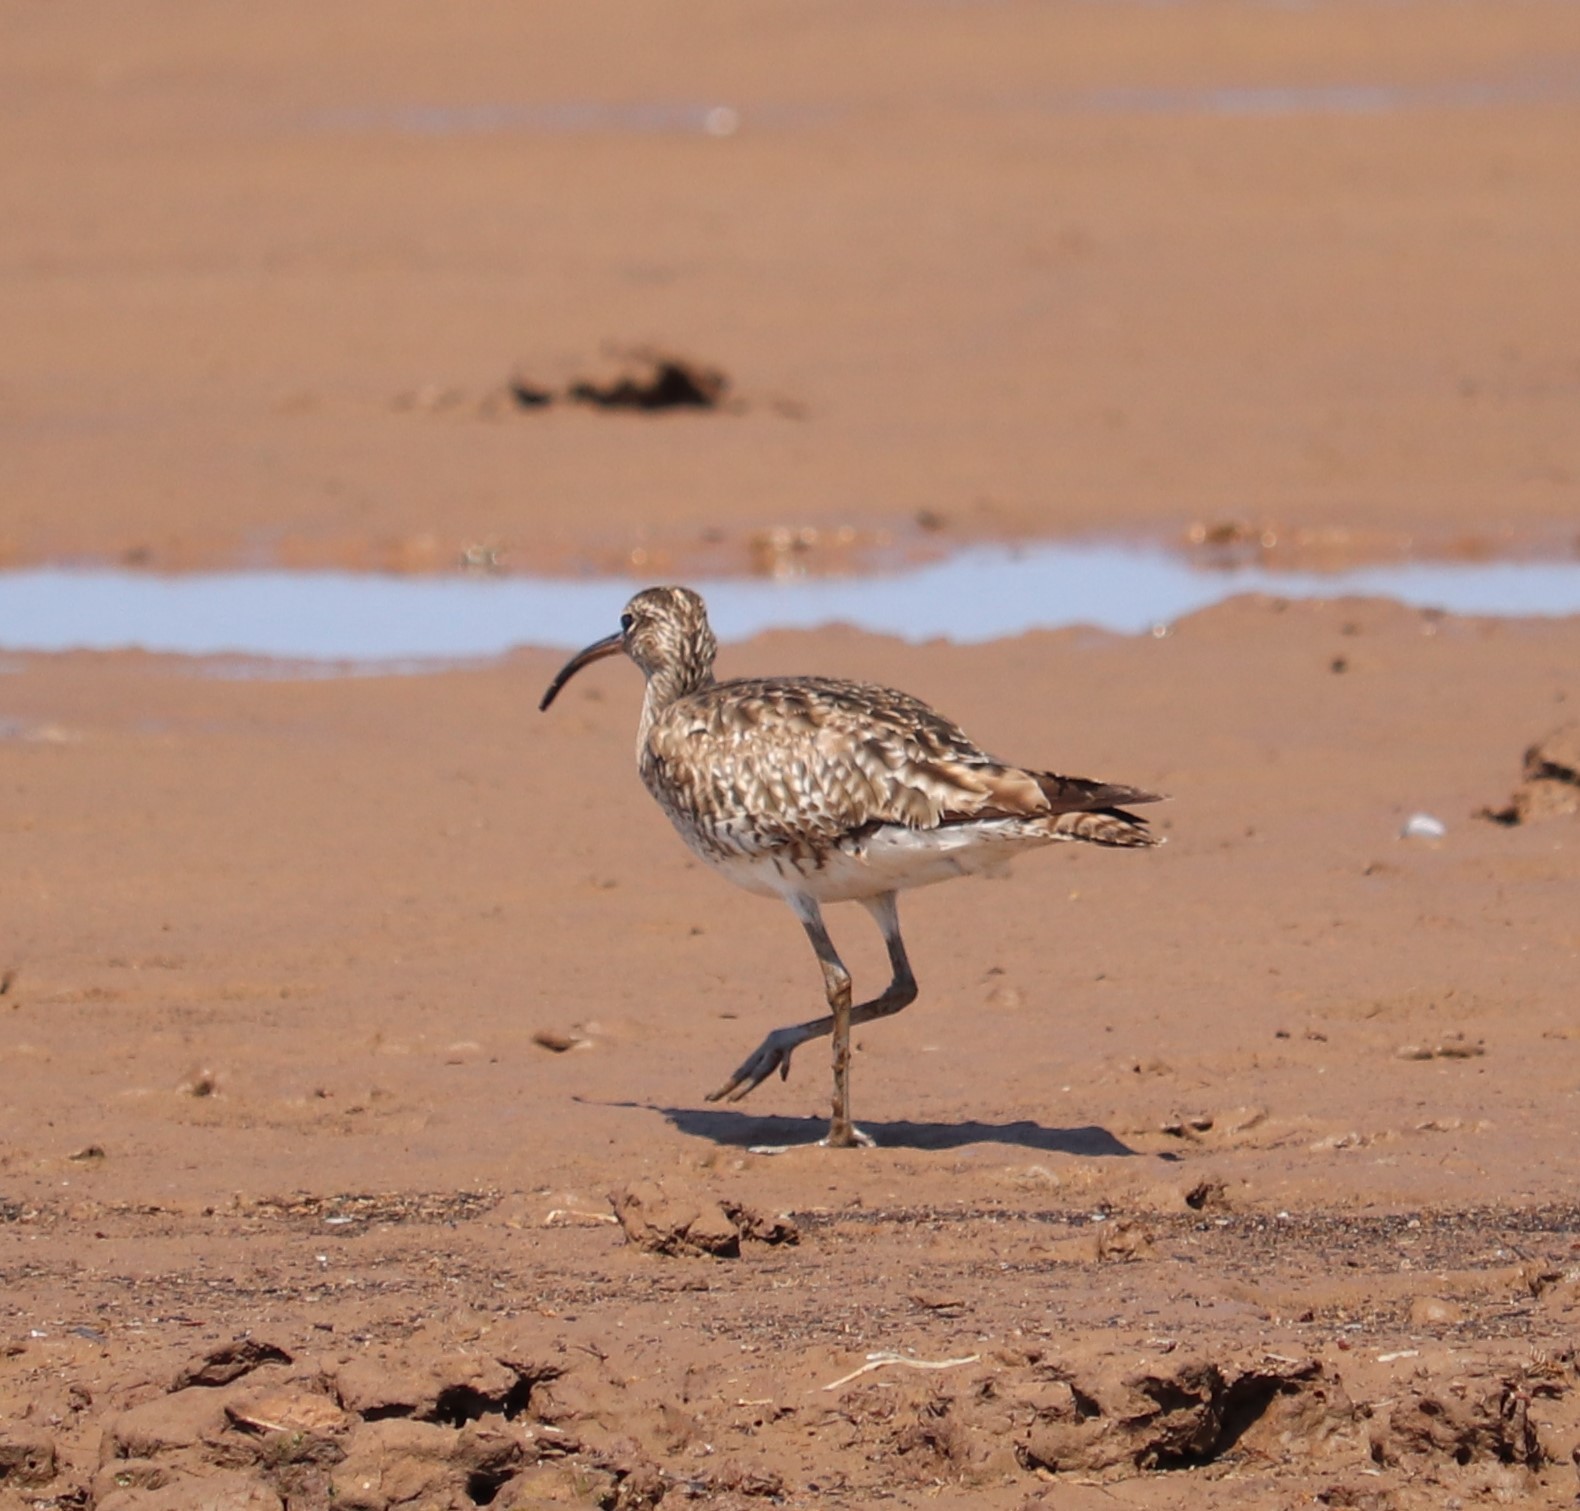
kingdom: Animalia
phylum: Chordata
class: Aves
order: Charadriiformes
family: Scolopacidae
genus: Numenius
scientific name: Numenius phaeopus
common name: Whimbrel
